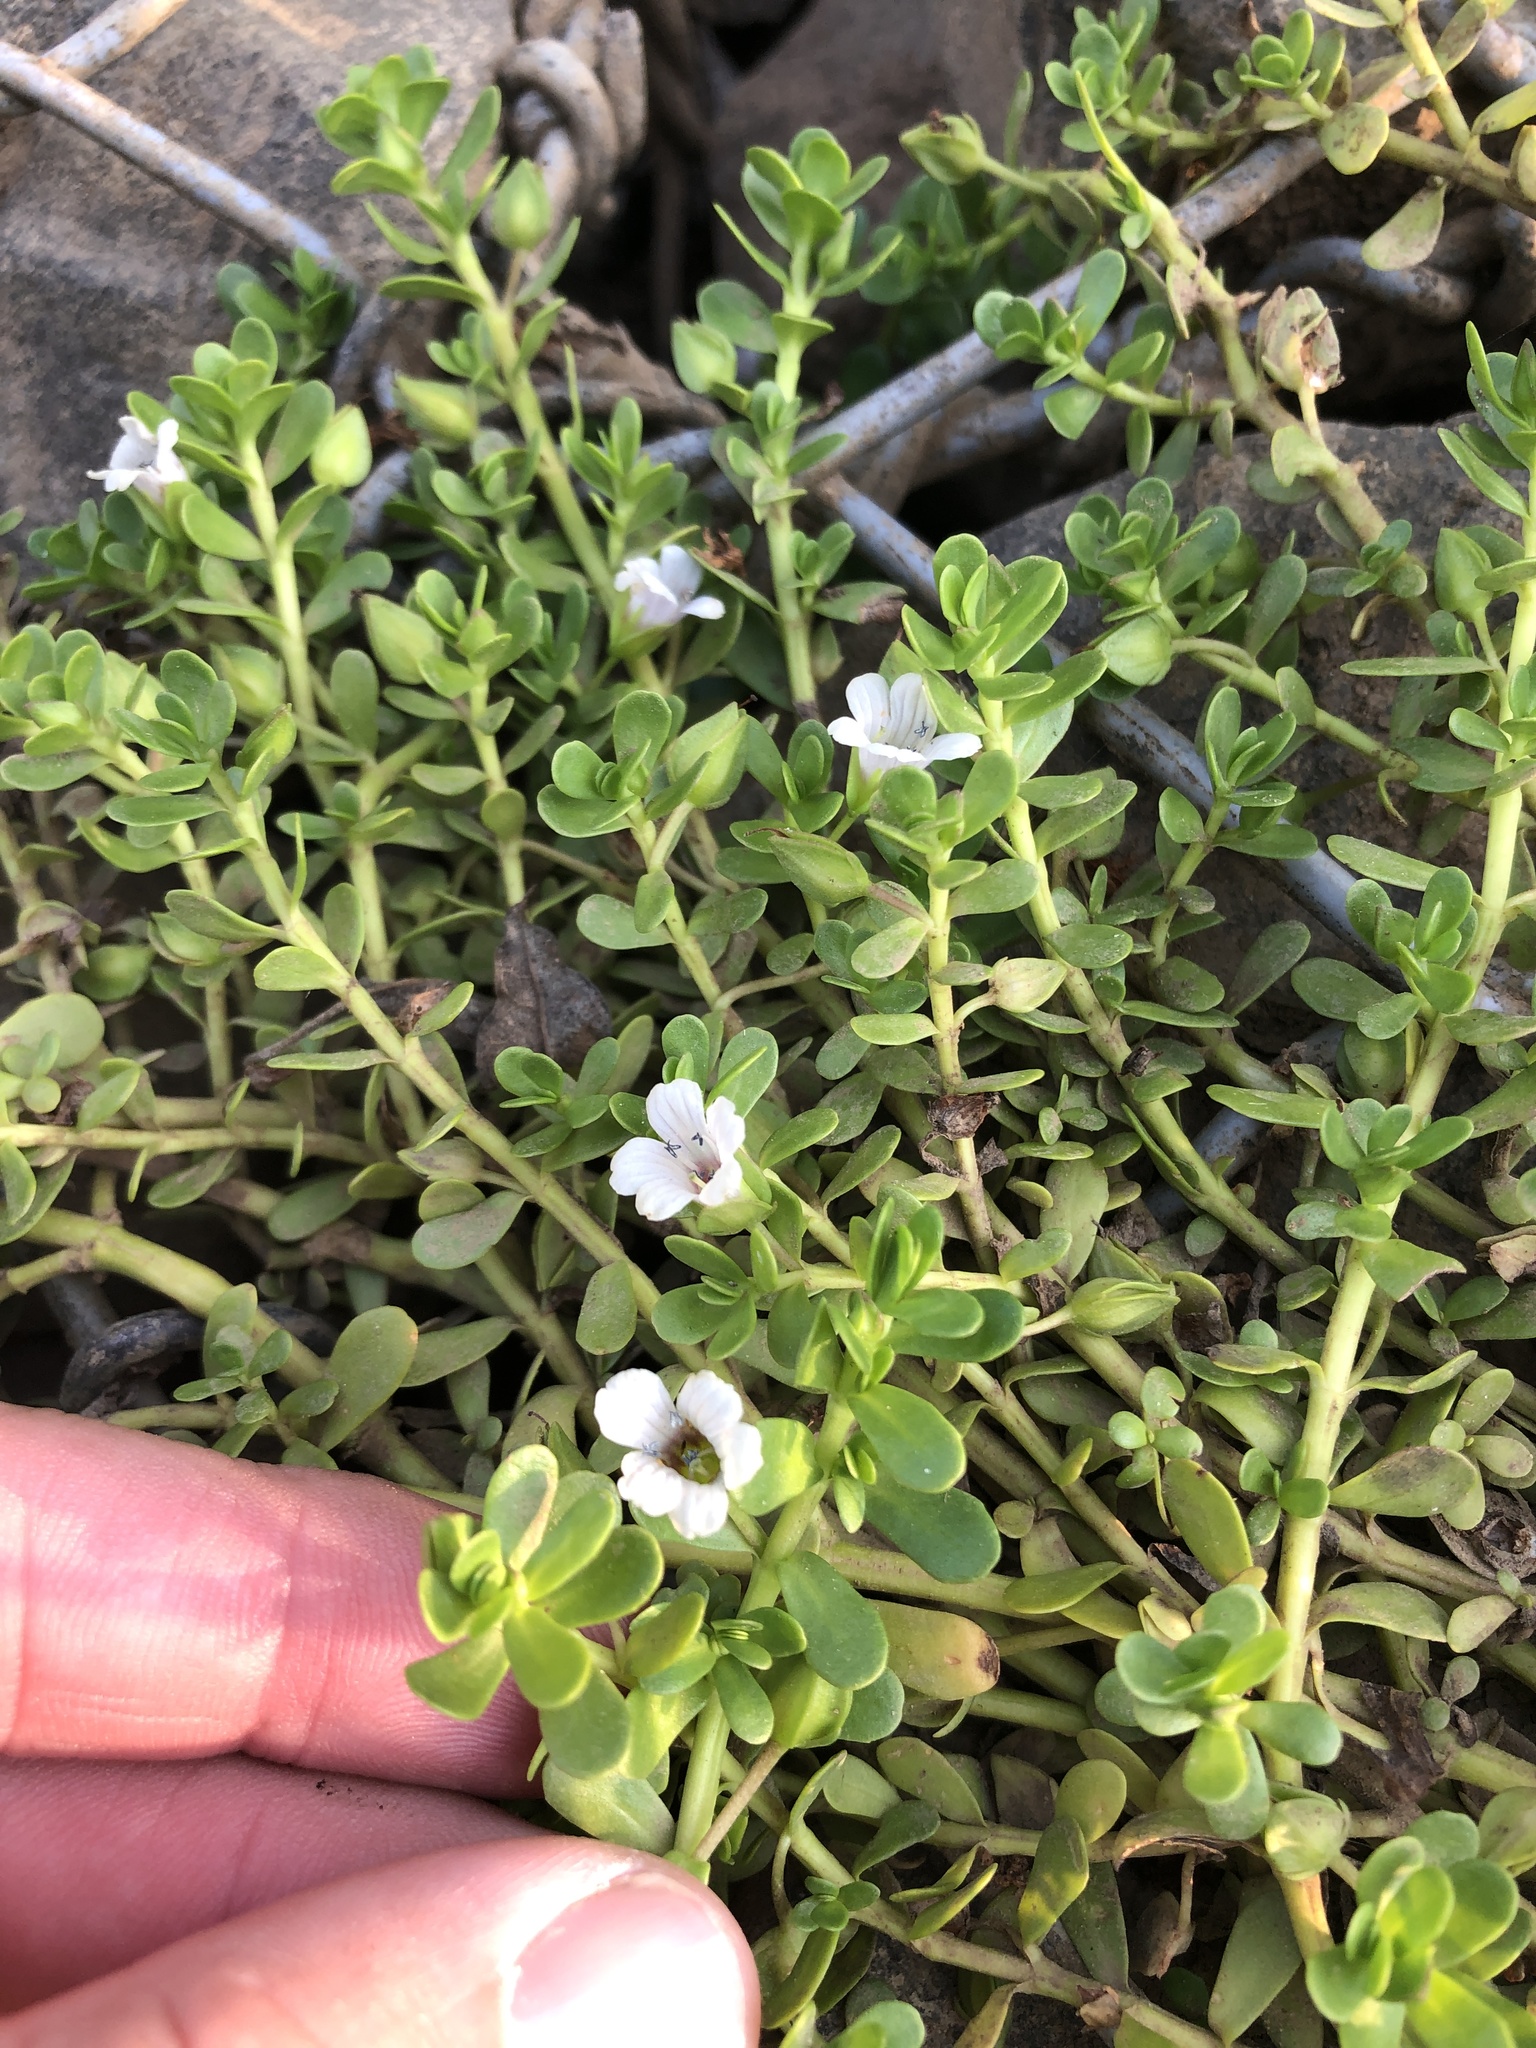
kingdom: Plantae
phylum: Tracheophyta
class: Magnoliopsida
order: Lamiales
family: Plantaginaceae
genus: Bacopa
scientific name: Bacopa monnieri
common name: Indian-pennywort
